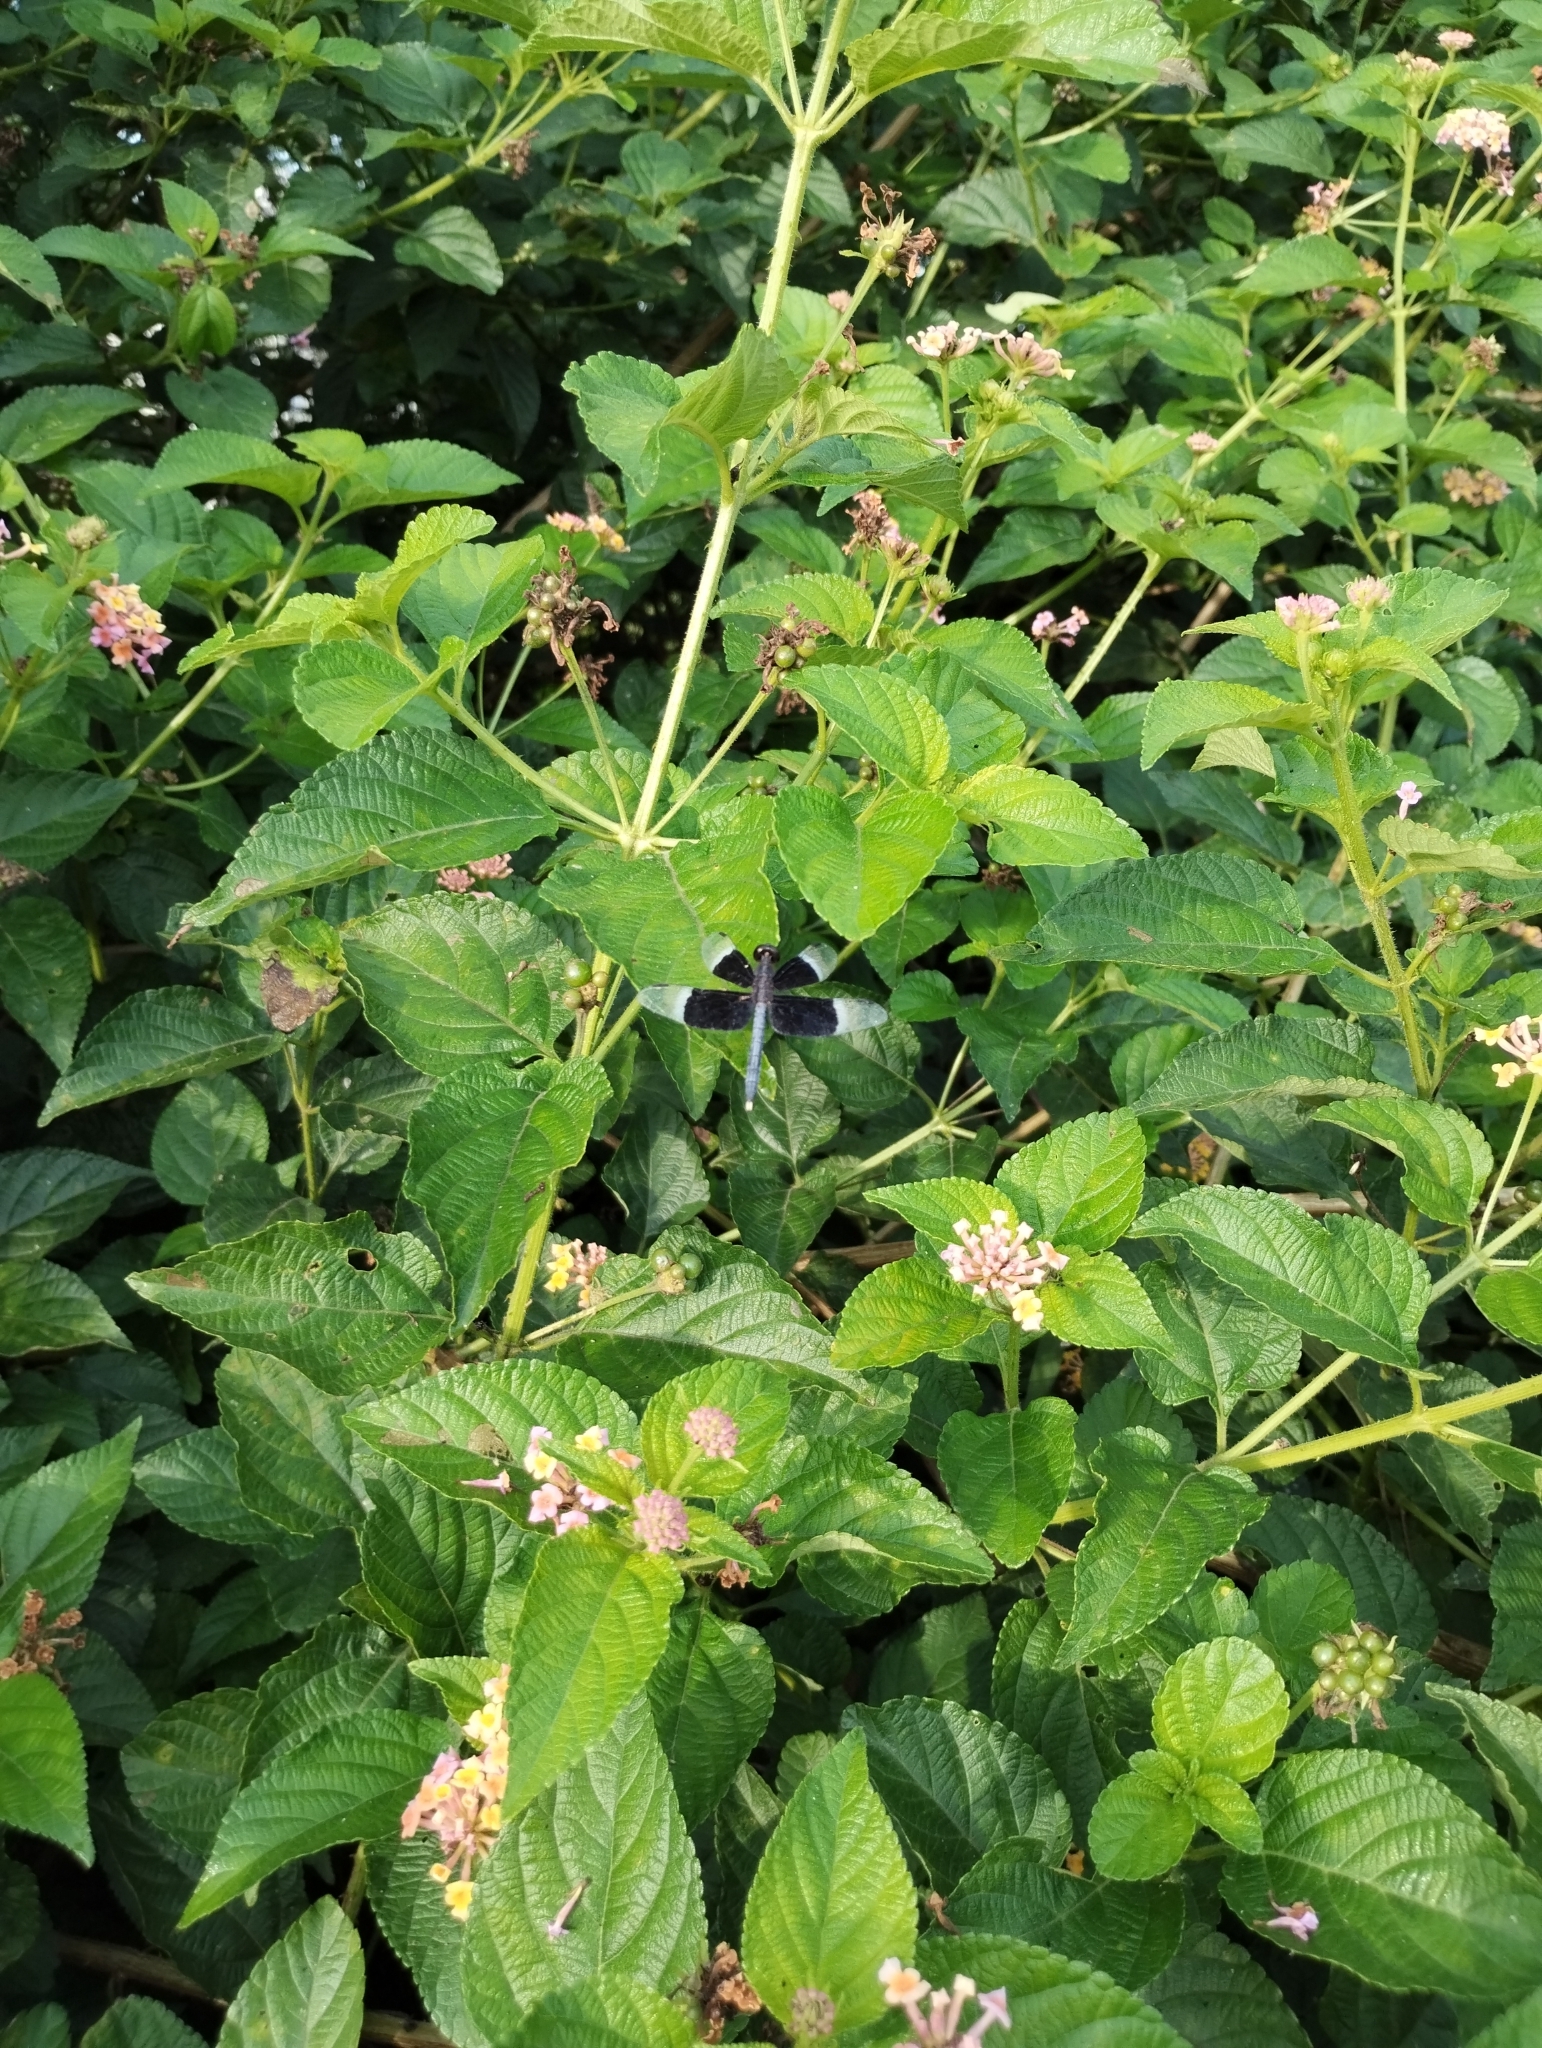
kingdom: Animalia
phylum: Arthropoda
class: Insecta
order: Odonata
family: Libellulidae
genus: Neurothemis
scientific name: Neurothemis tullia
